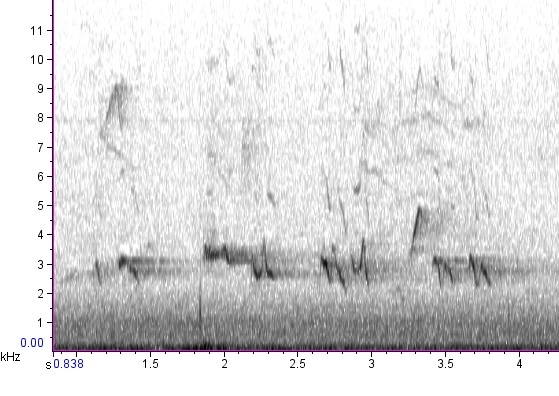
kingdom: Animalia
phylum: Chordata
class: Aves
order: Passeriformes
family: Cardinalidae
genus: Piranga
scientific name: Piranga rubra
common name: Summer tanager
